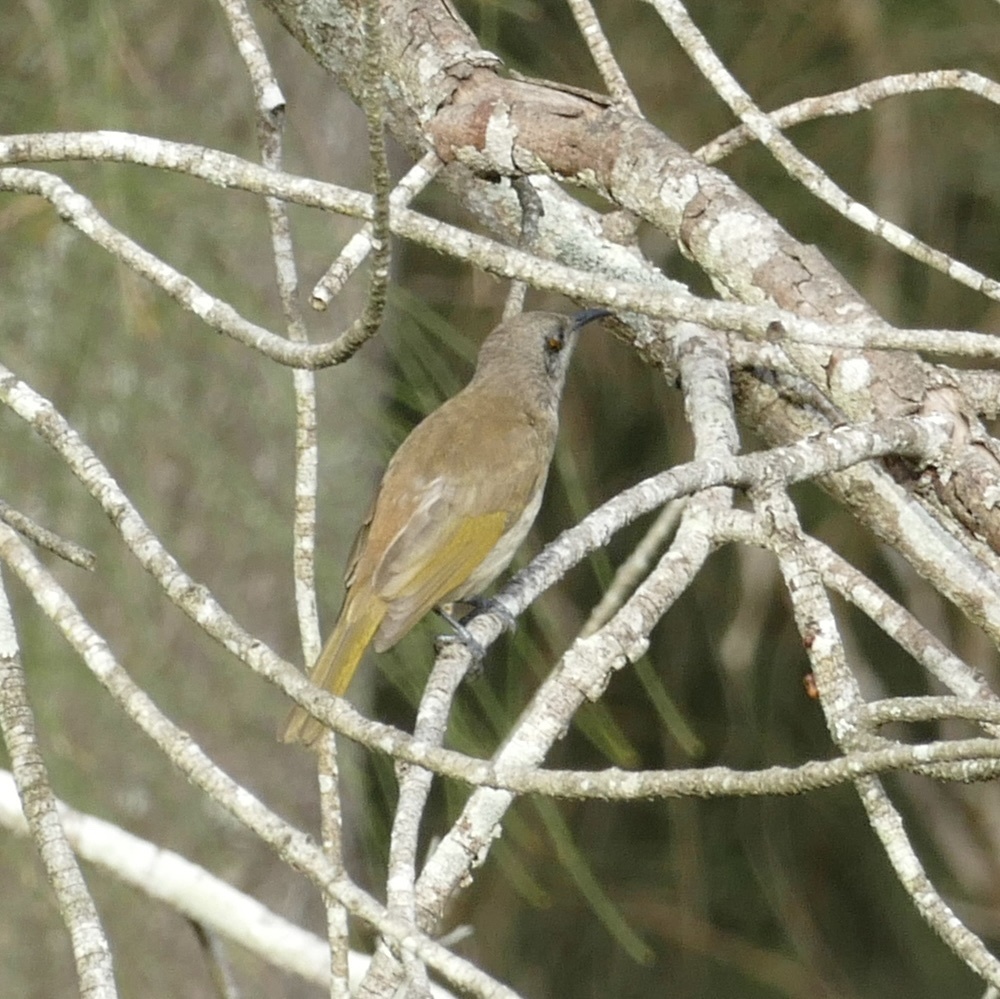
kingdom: Animalia
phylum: Chordata
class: Aves
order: Passeriformes
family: Meliphagidae
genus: Lichmera
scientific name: Lichmera indistincta
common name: Brown honeyeater
